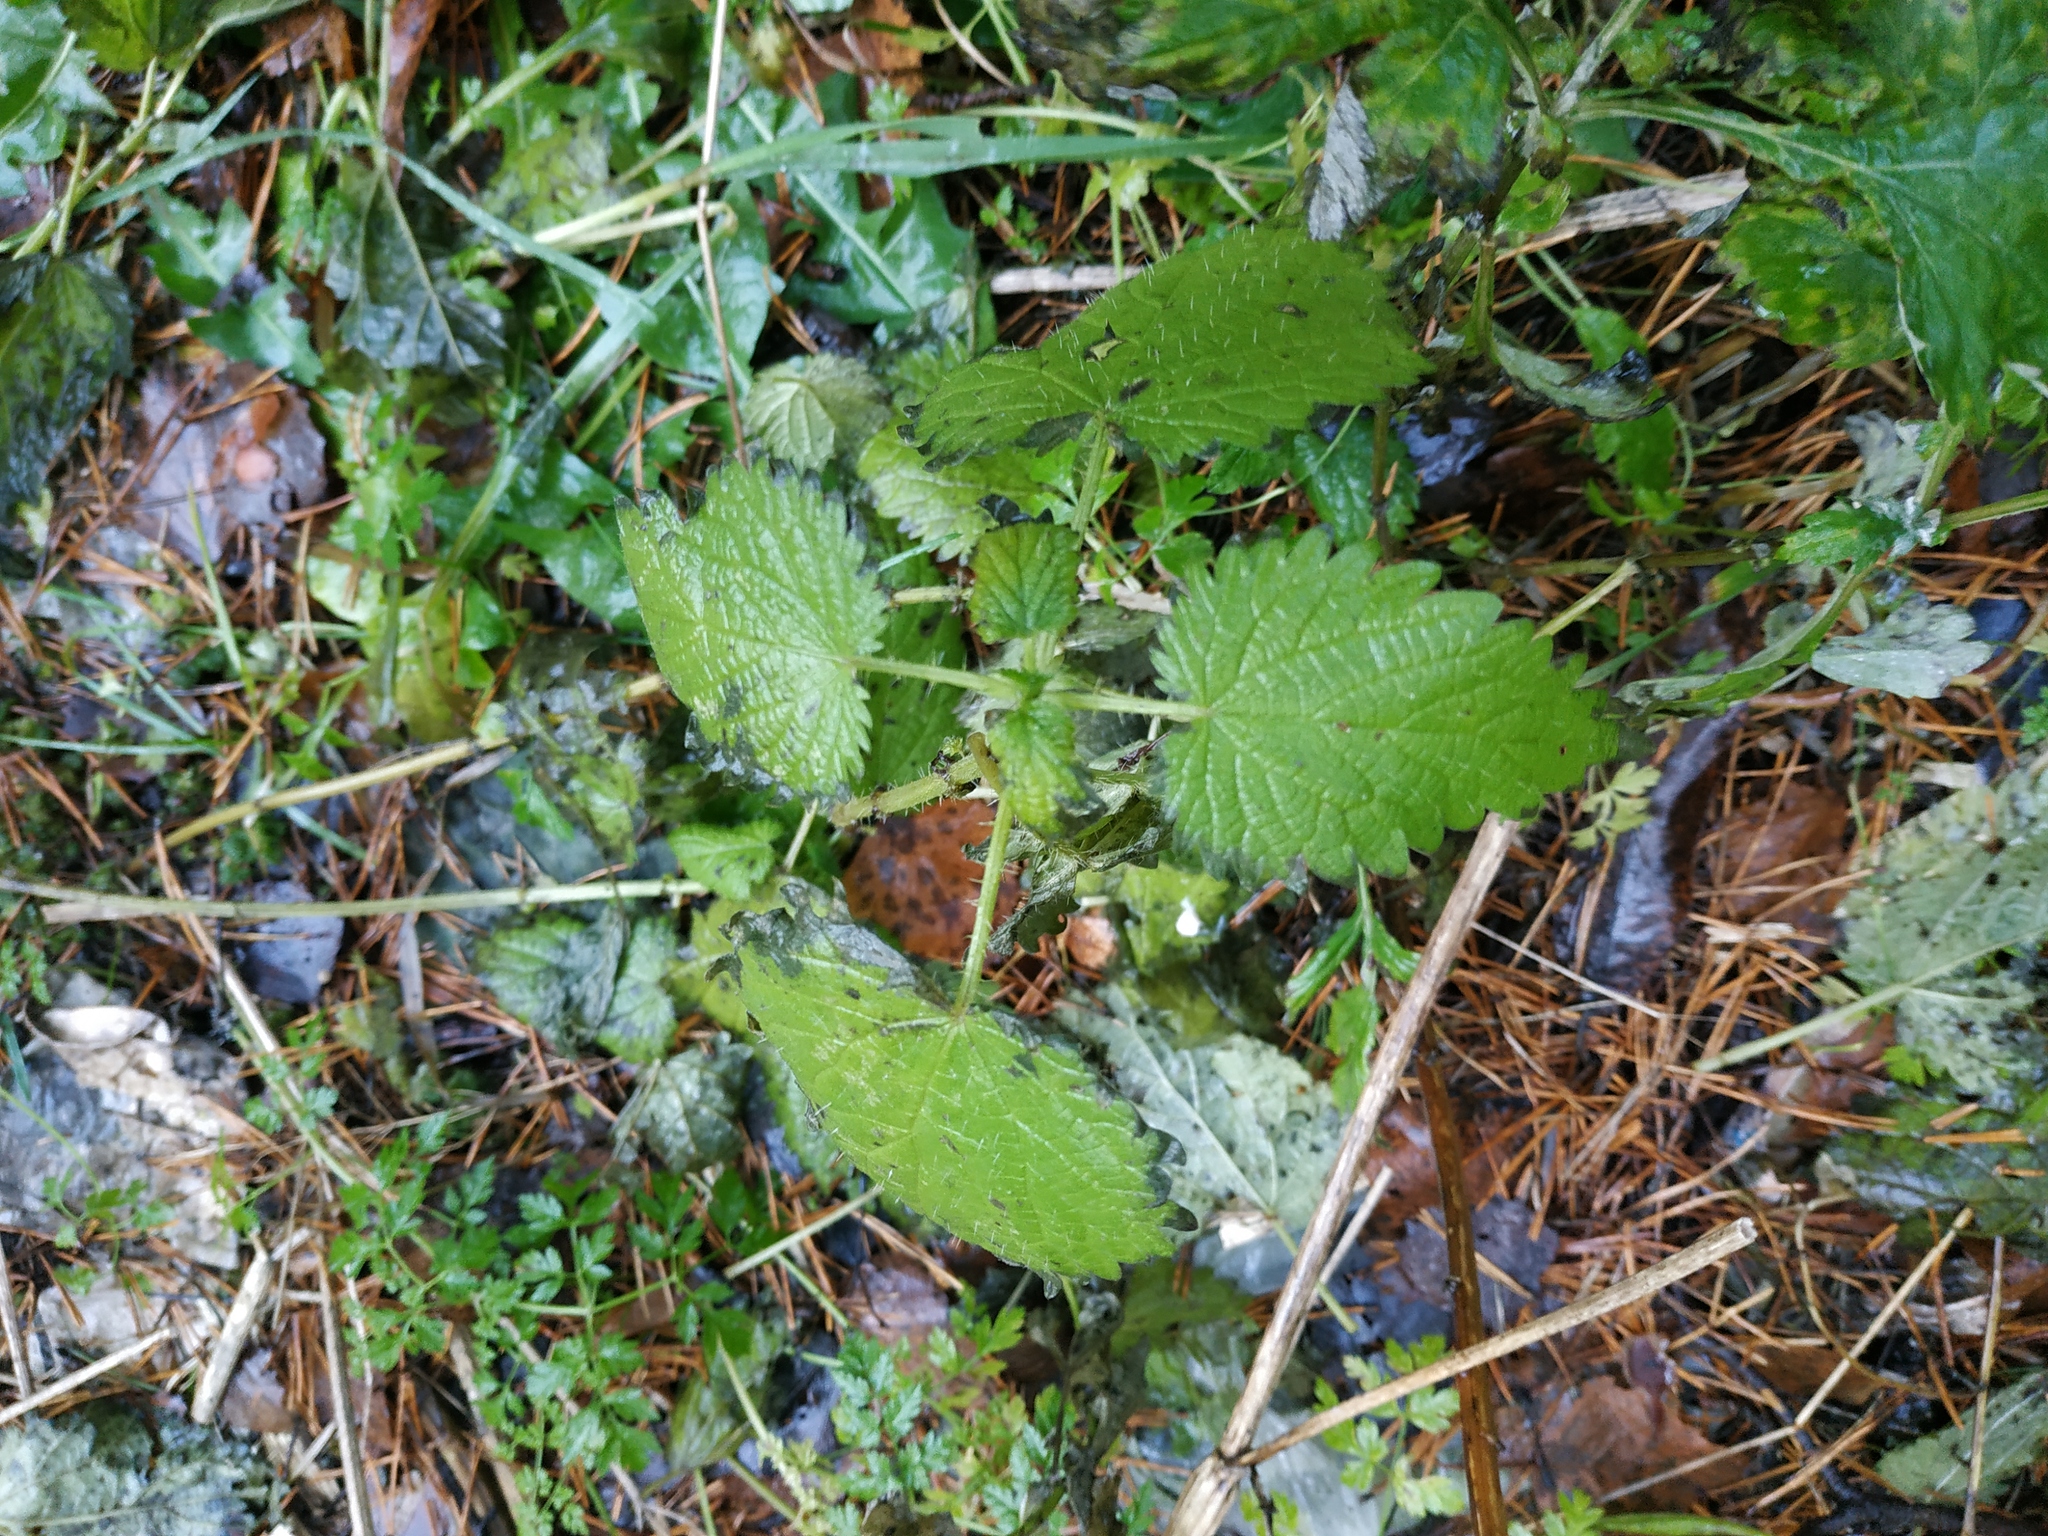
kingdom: Plantae
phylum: Tracheophyta
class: Magnoliopsida
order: Rosales
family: Urticaceae
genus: Urtica
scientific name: Urtica dioica
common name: Common nettle
